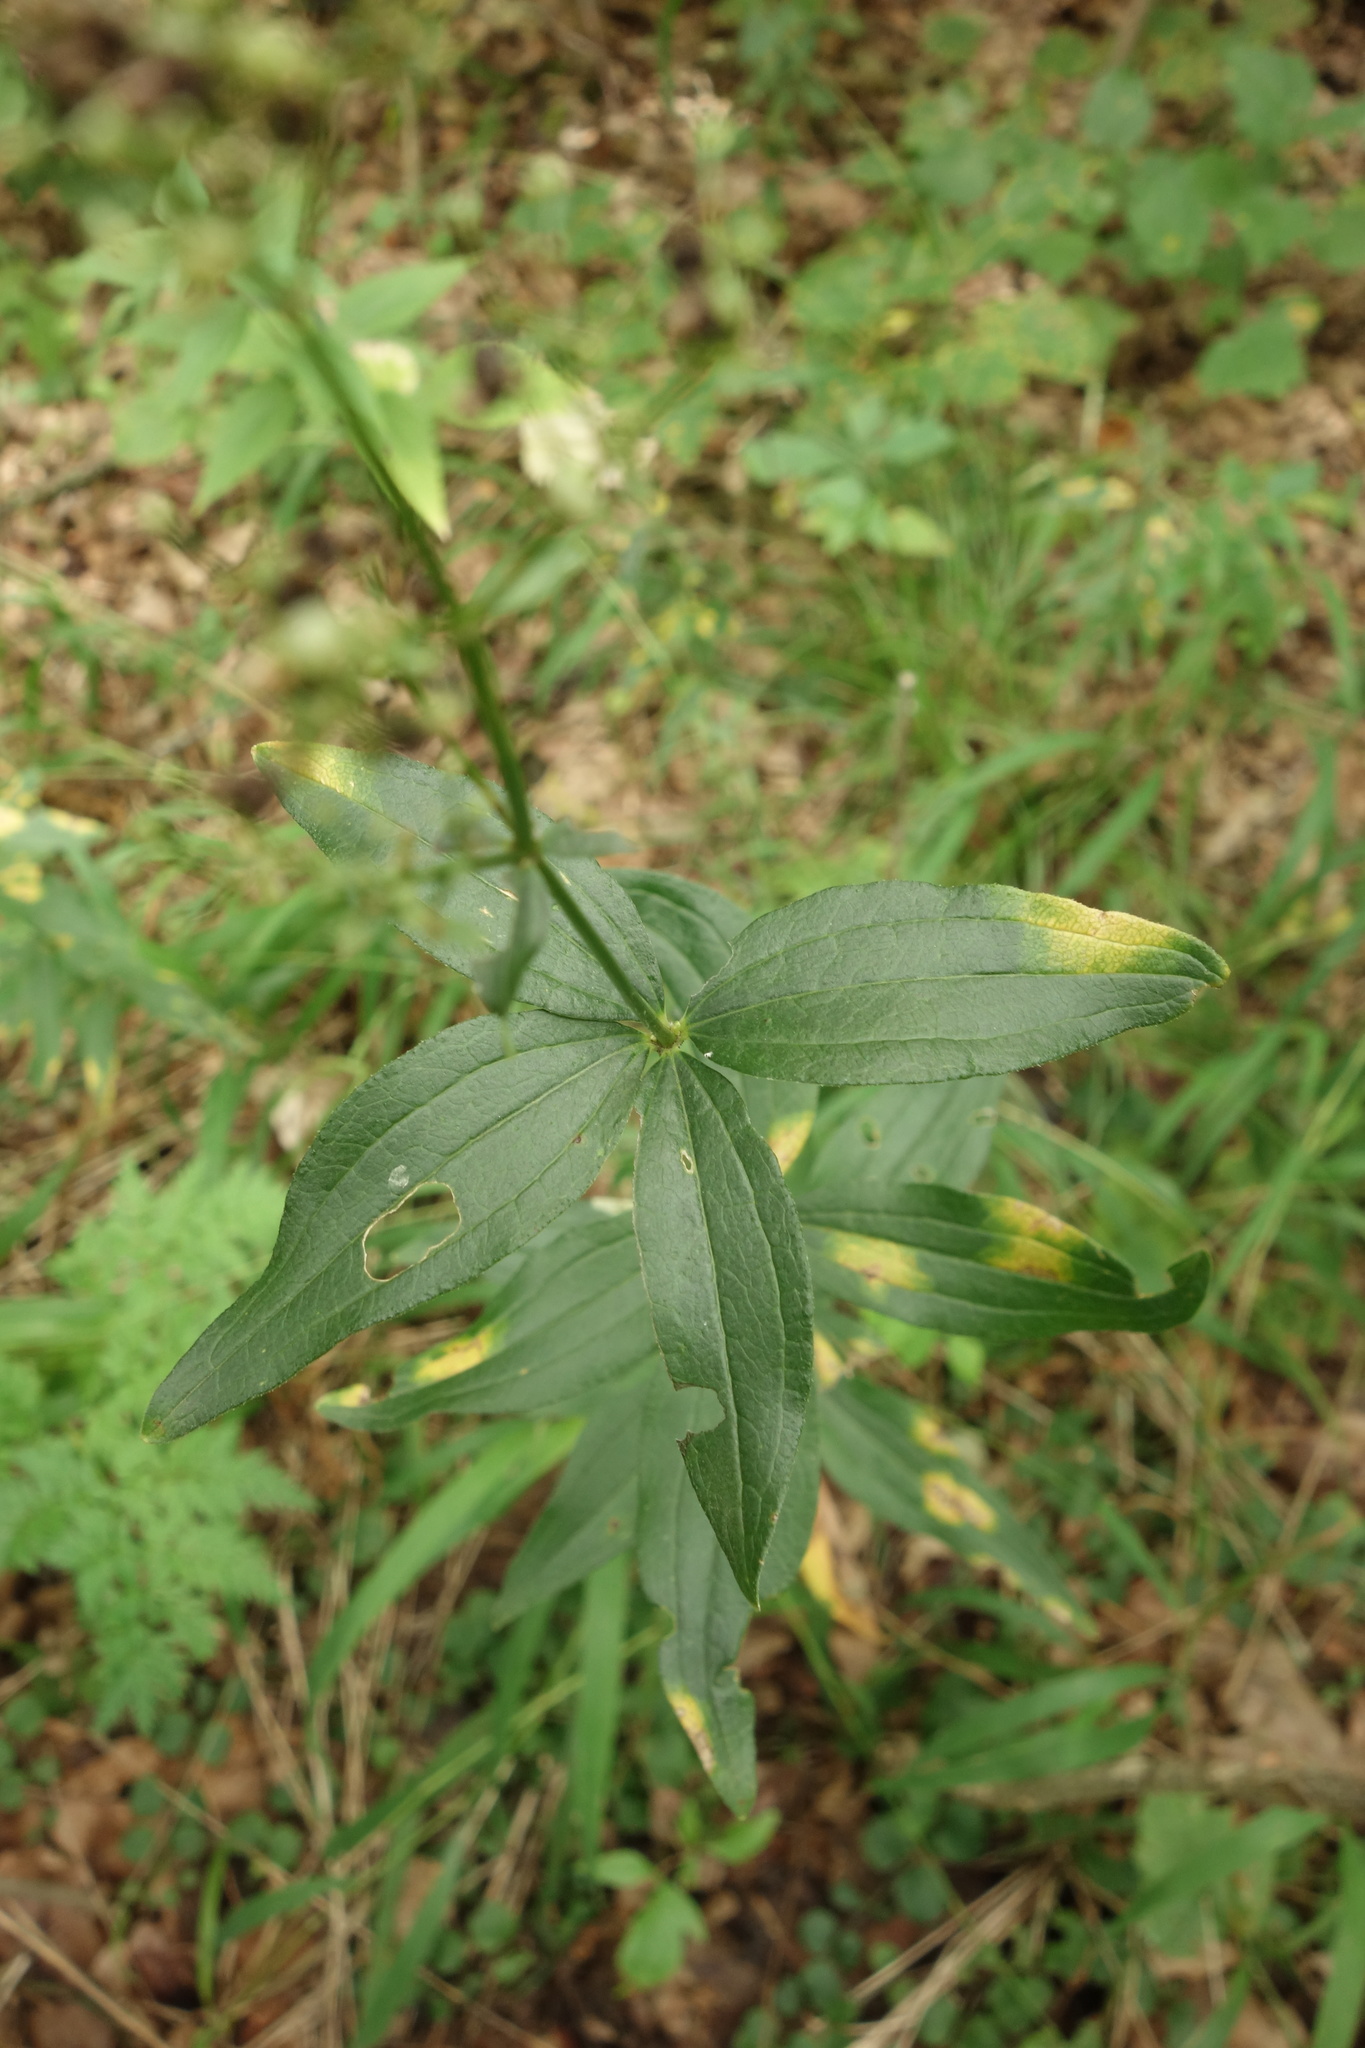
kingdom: Plantae
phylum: Tracheophyta
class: Magnoliopsida
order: Gentianales
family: Rubiaceae
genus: Galium
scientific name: Galium rubioides
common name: European bedstraw
